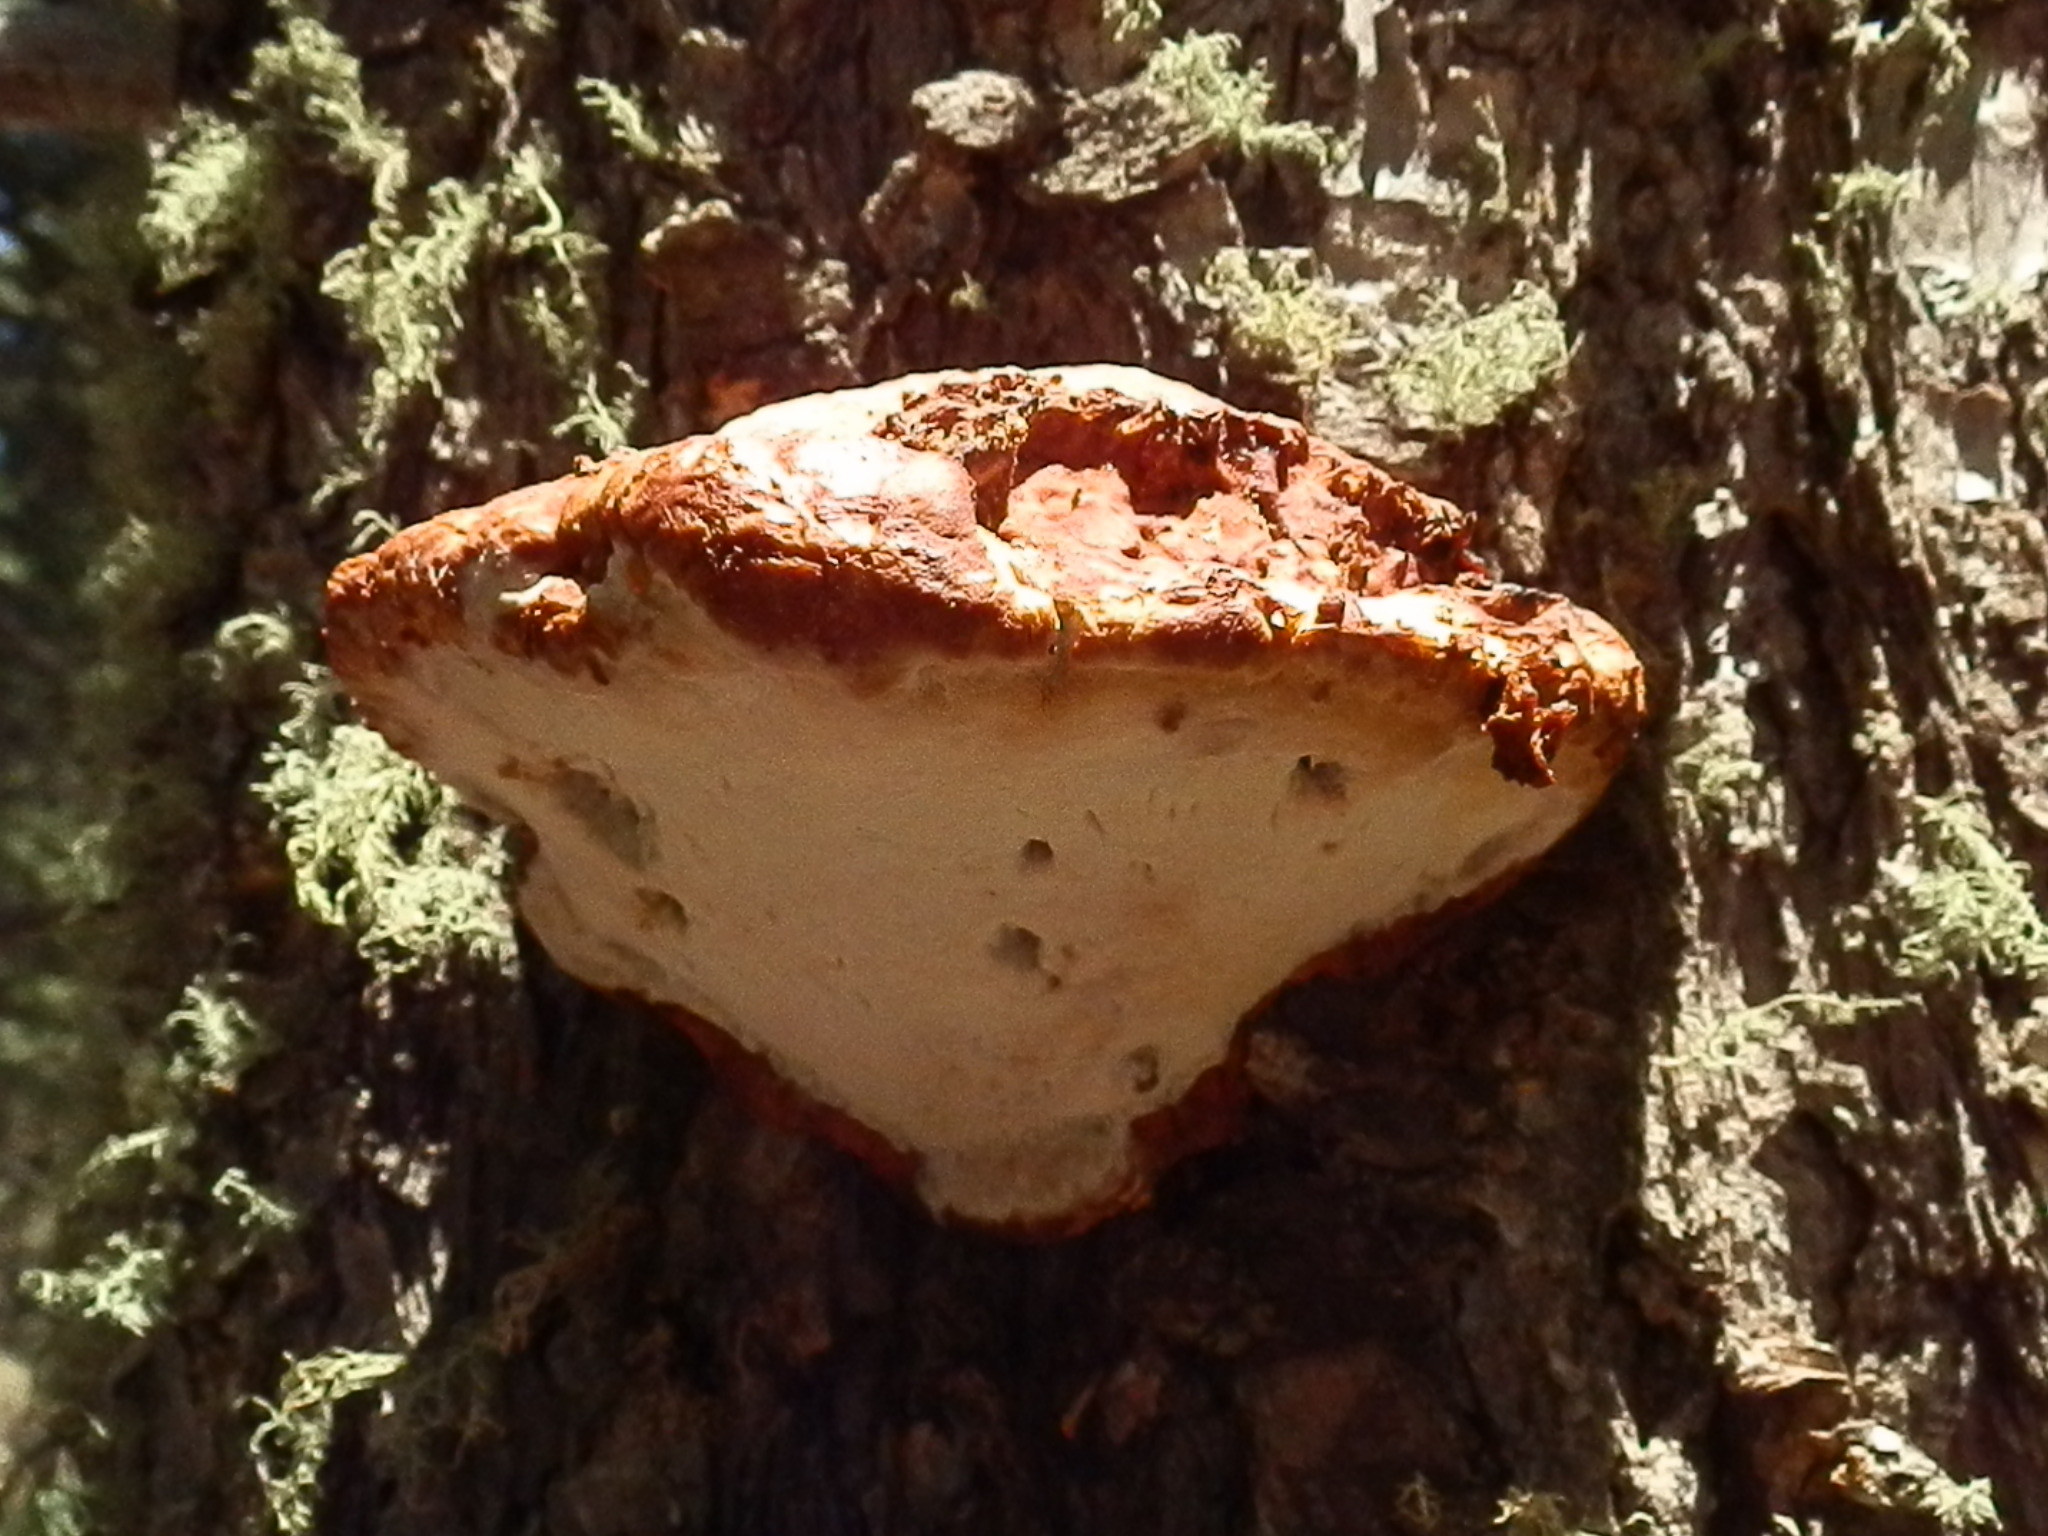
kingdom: Fungi
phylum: Basidiomycota
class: Agaricomycetes
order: Polyporales
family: Fomitopsidaceae
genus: Fomitopsis
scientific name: Fomitopsis schrenkii
